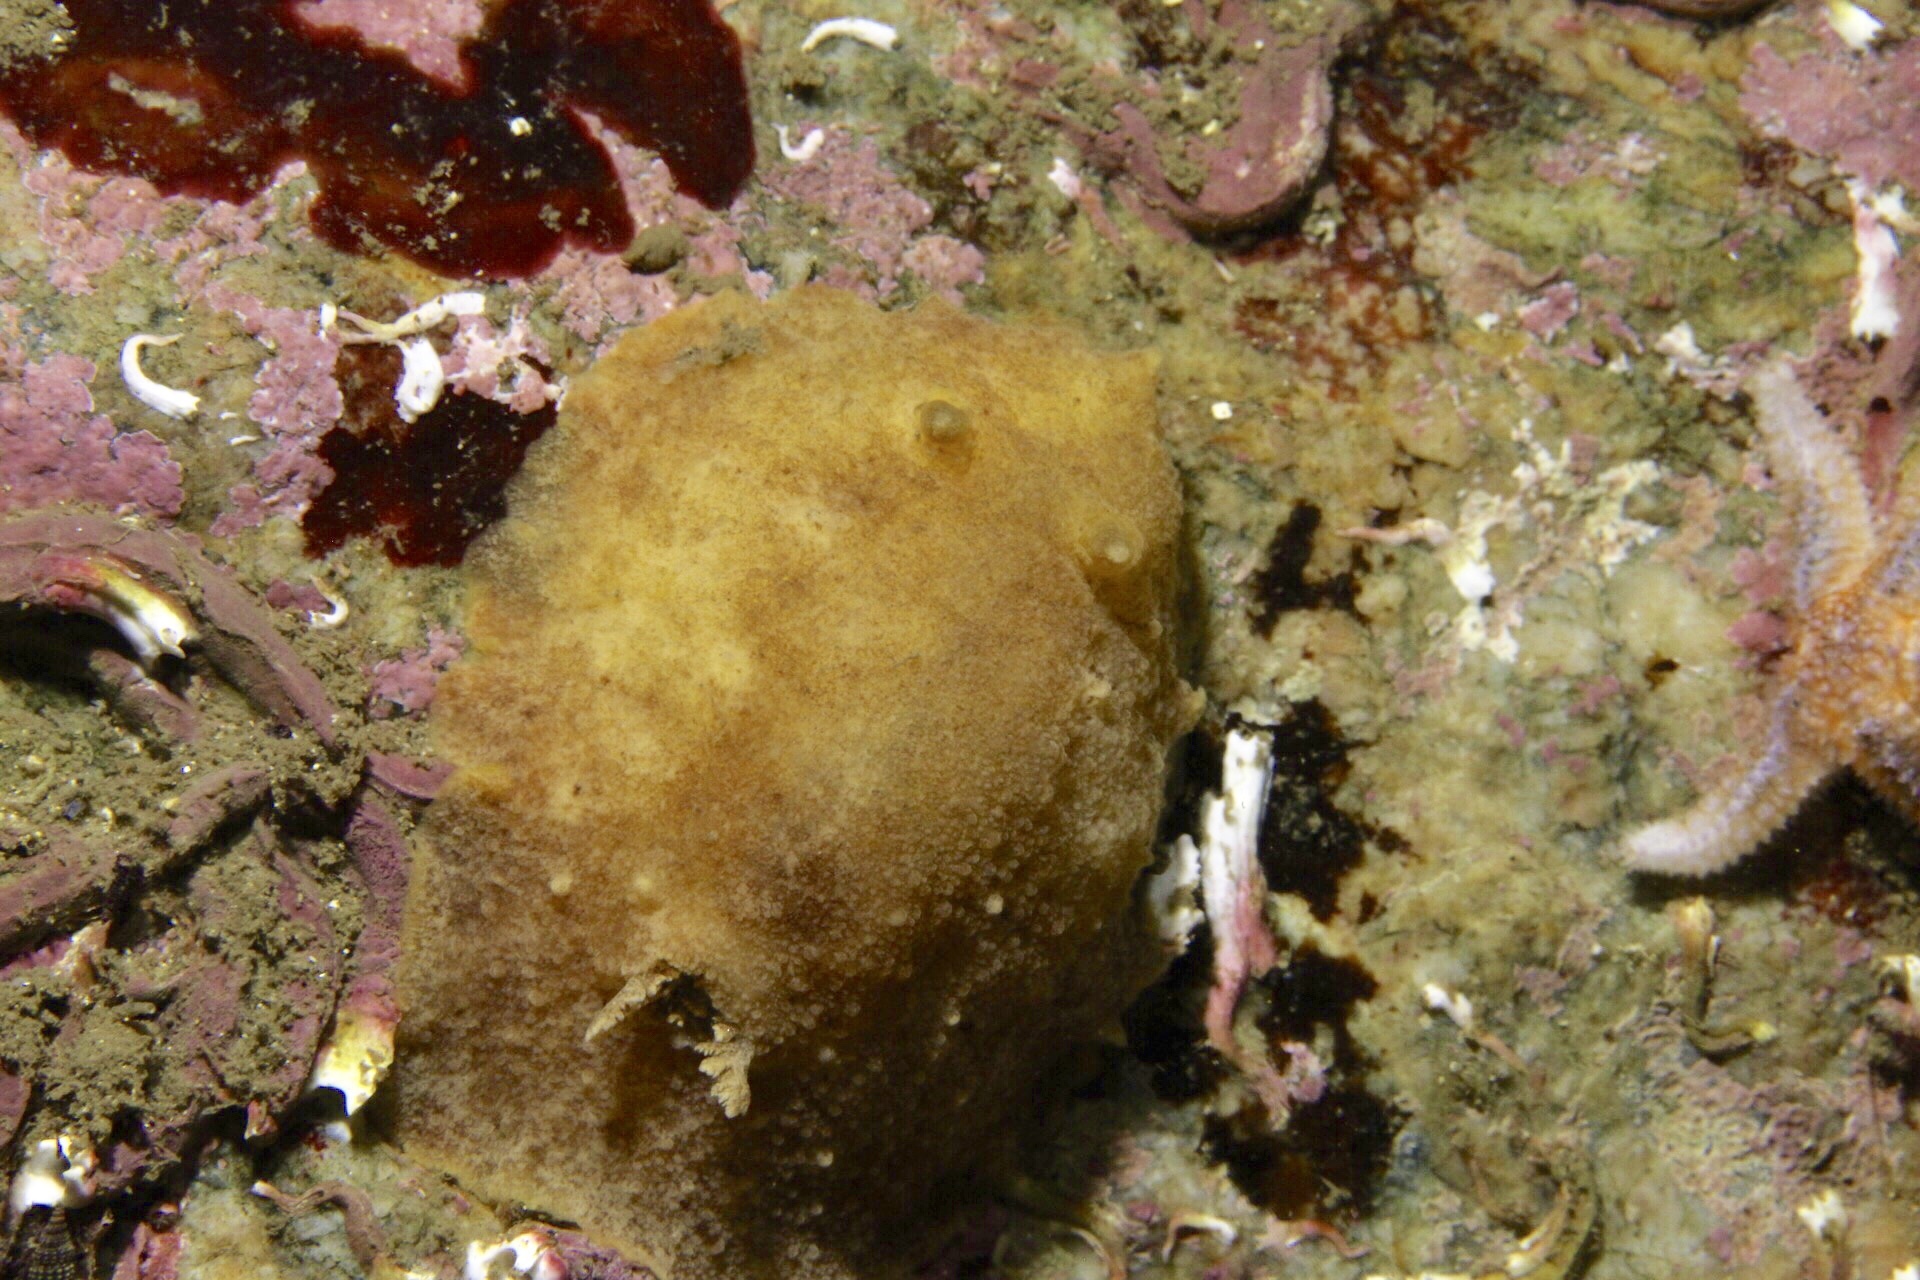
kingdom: Animalia
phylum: Mollusca
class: Gastropoda
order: Nudibranchia
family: Discodorididae
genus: Geitodoris
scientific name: Geitodoris planata
